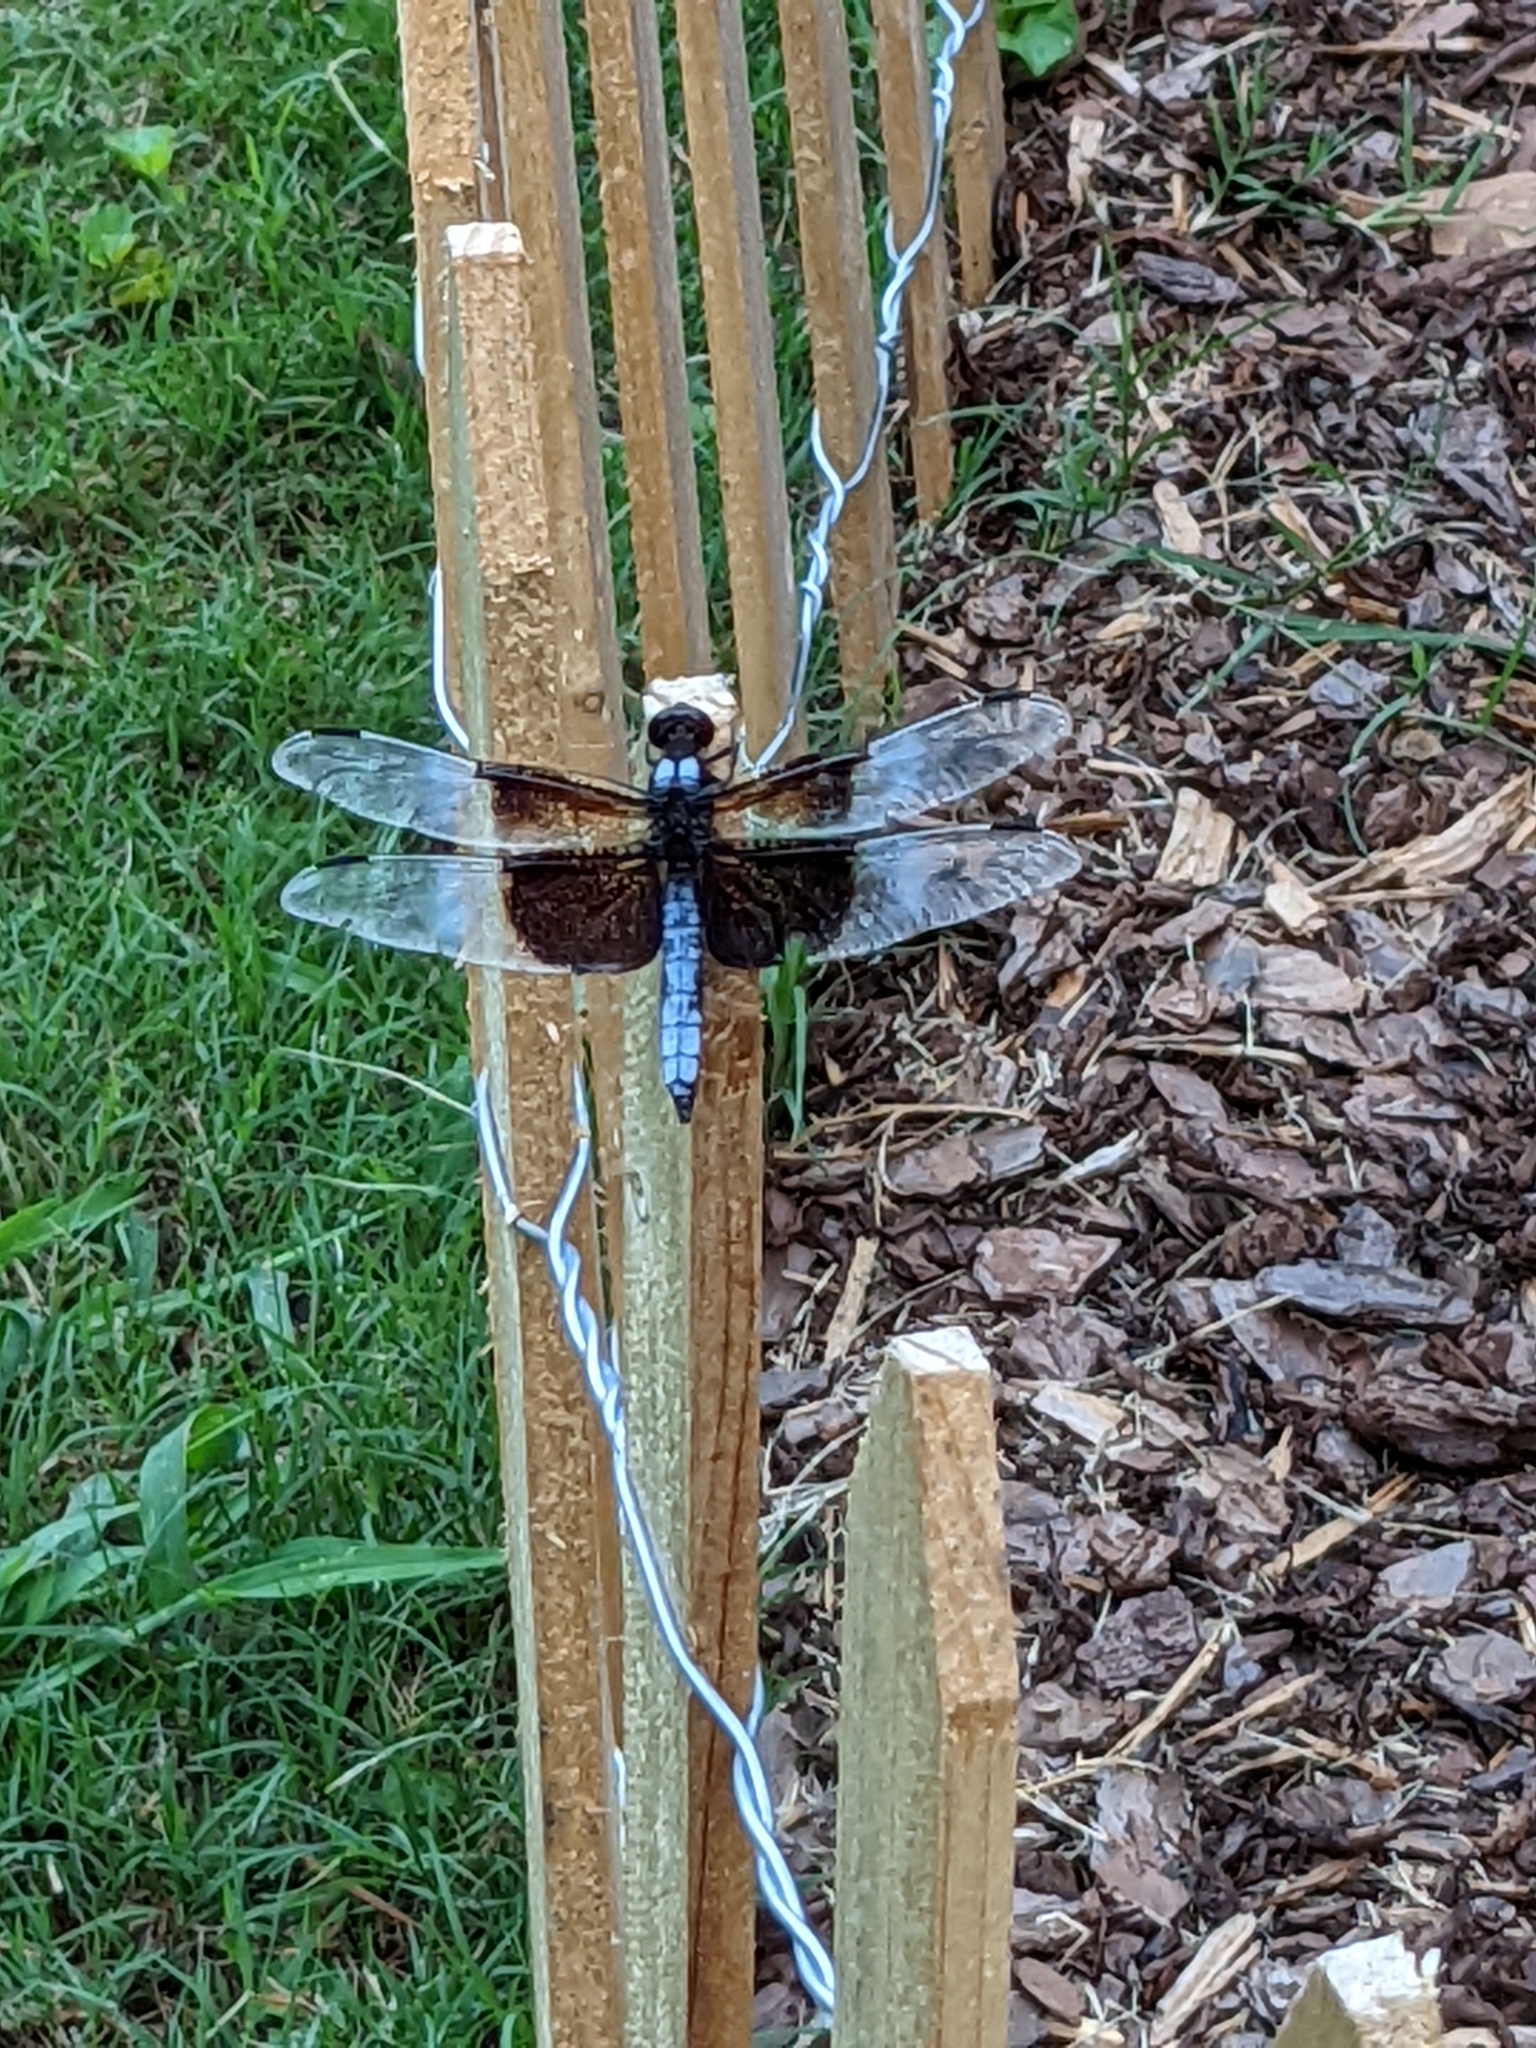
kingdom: Animalia
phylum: Arthropoda
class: Insecta
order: Odonata
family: Libellulidae
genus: Libellula
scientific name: Libellula luctuosa
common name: Widow skimmer
